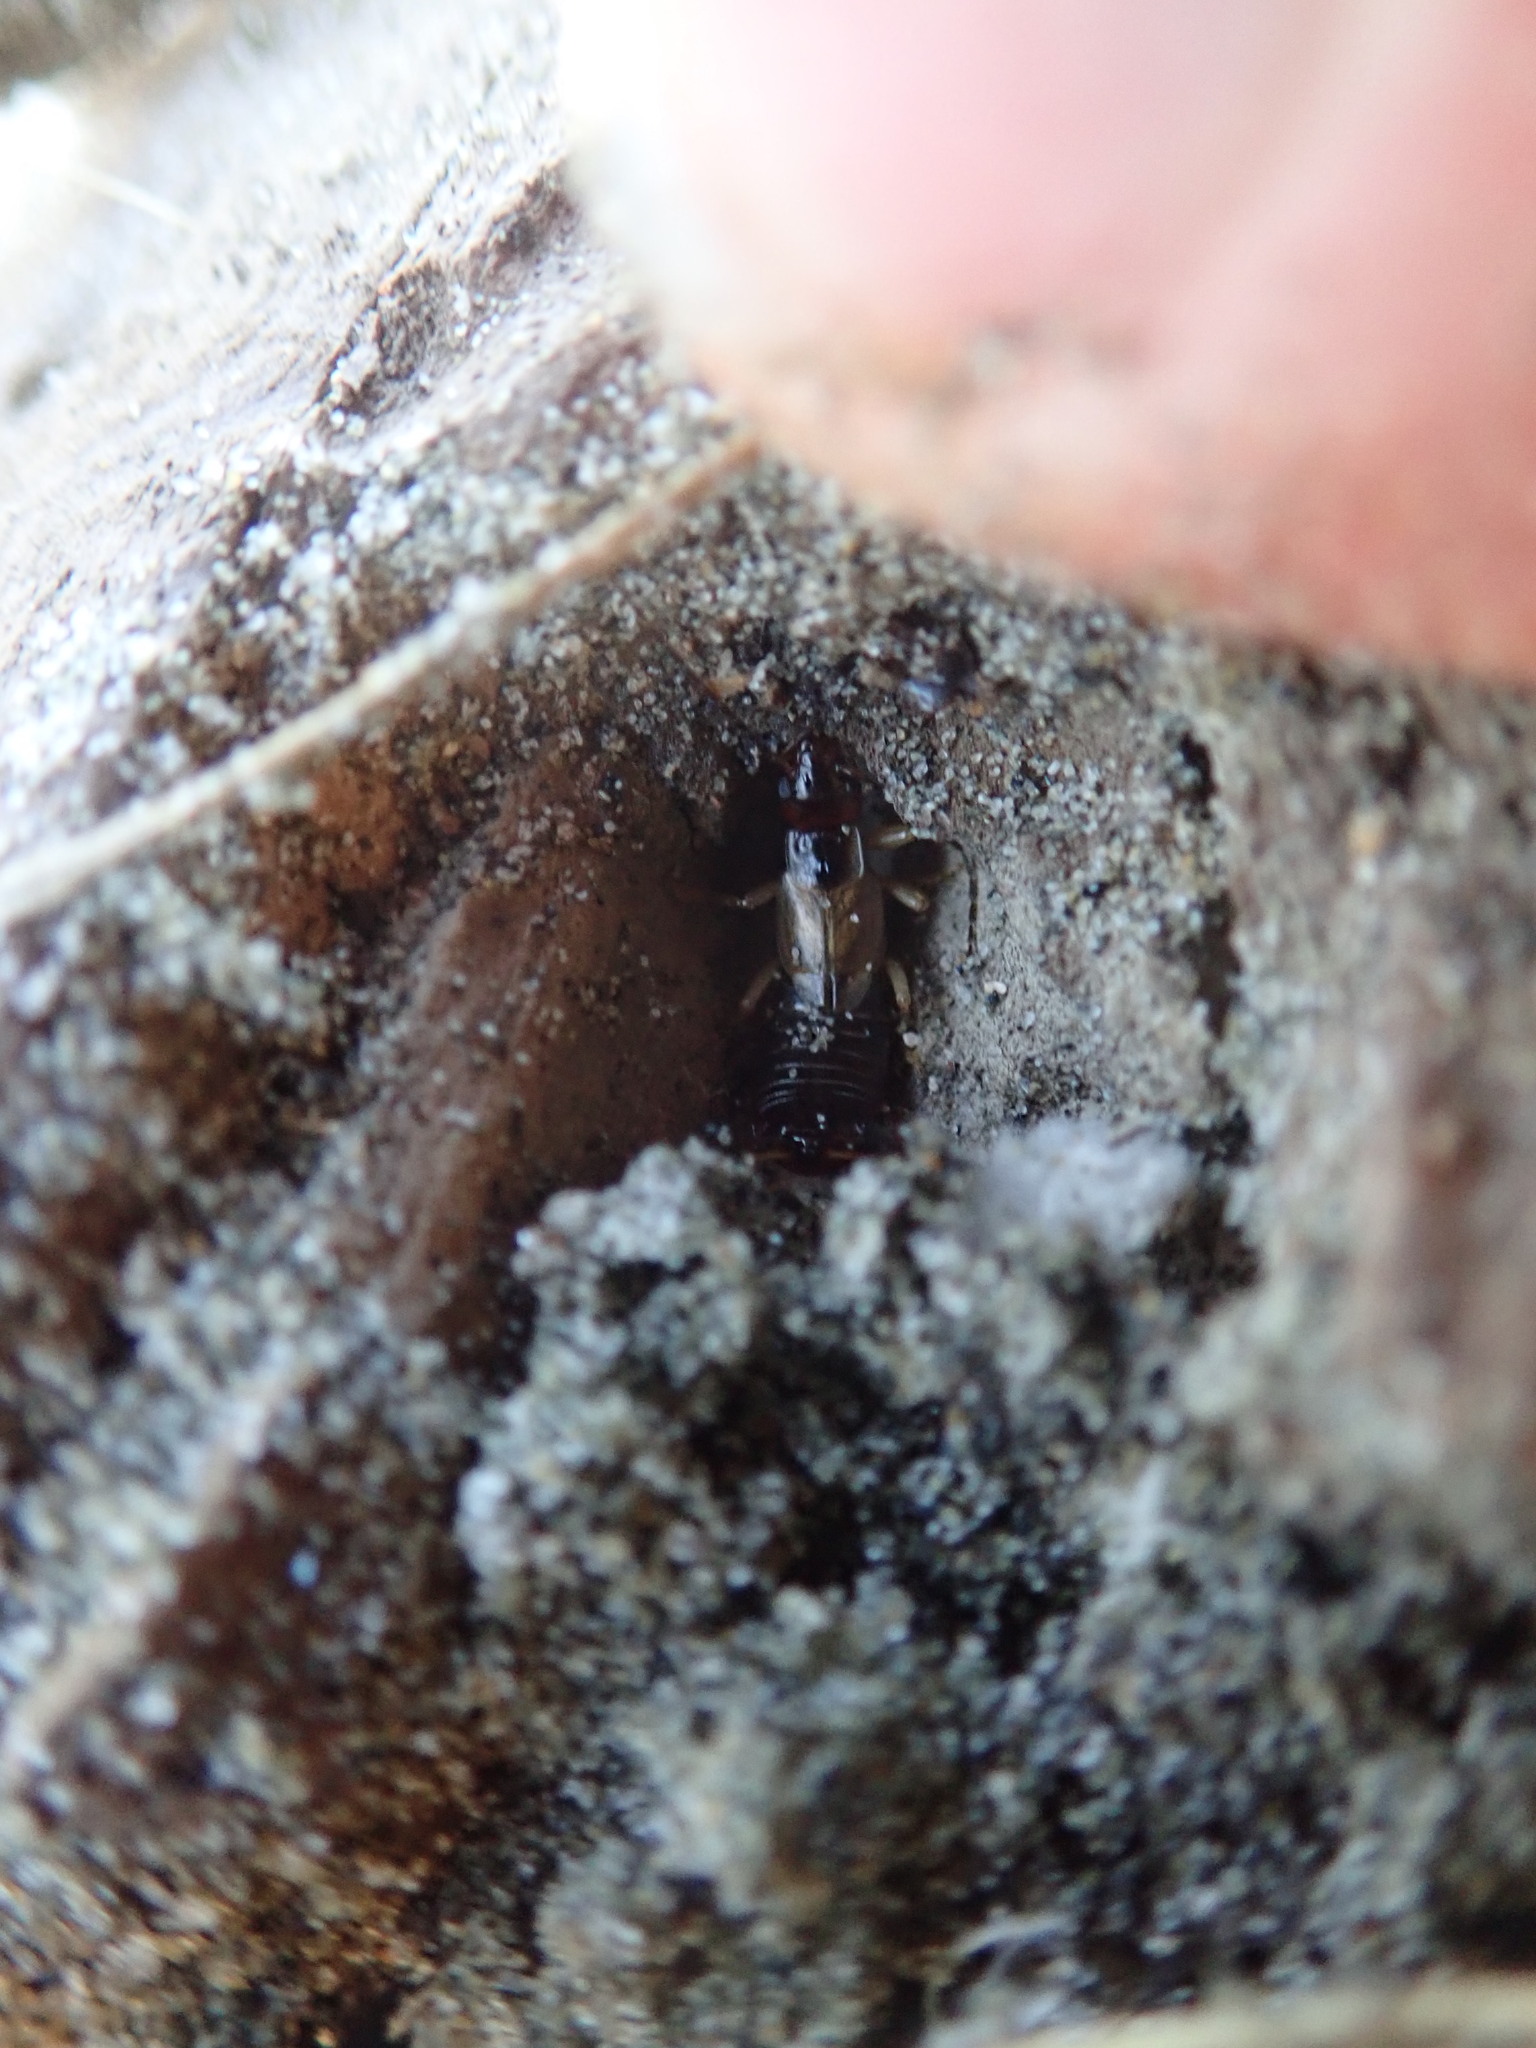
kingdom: Animalia
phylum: Arthropoda
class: Insecta
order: Dermaptera
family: Forficulidae
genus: Forficula
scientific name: Forficula
